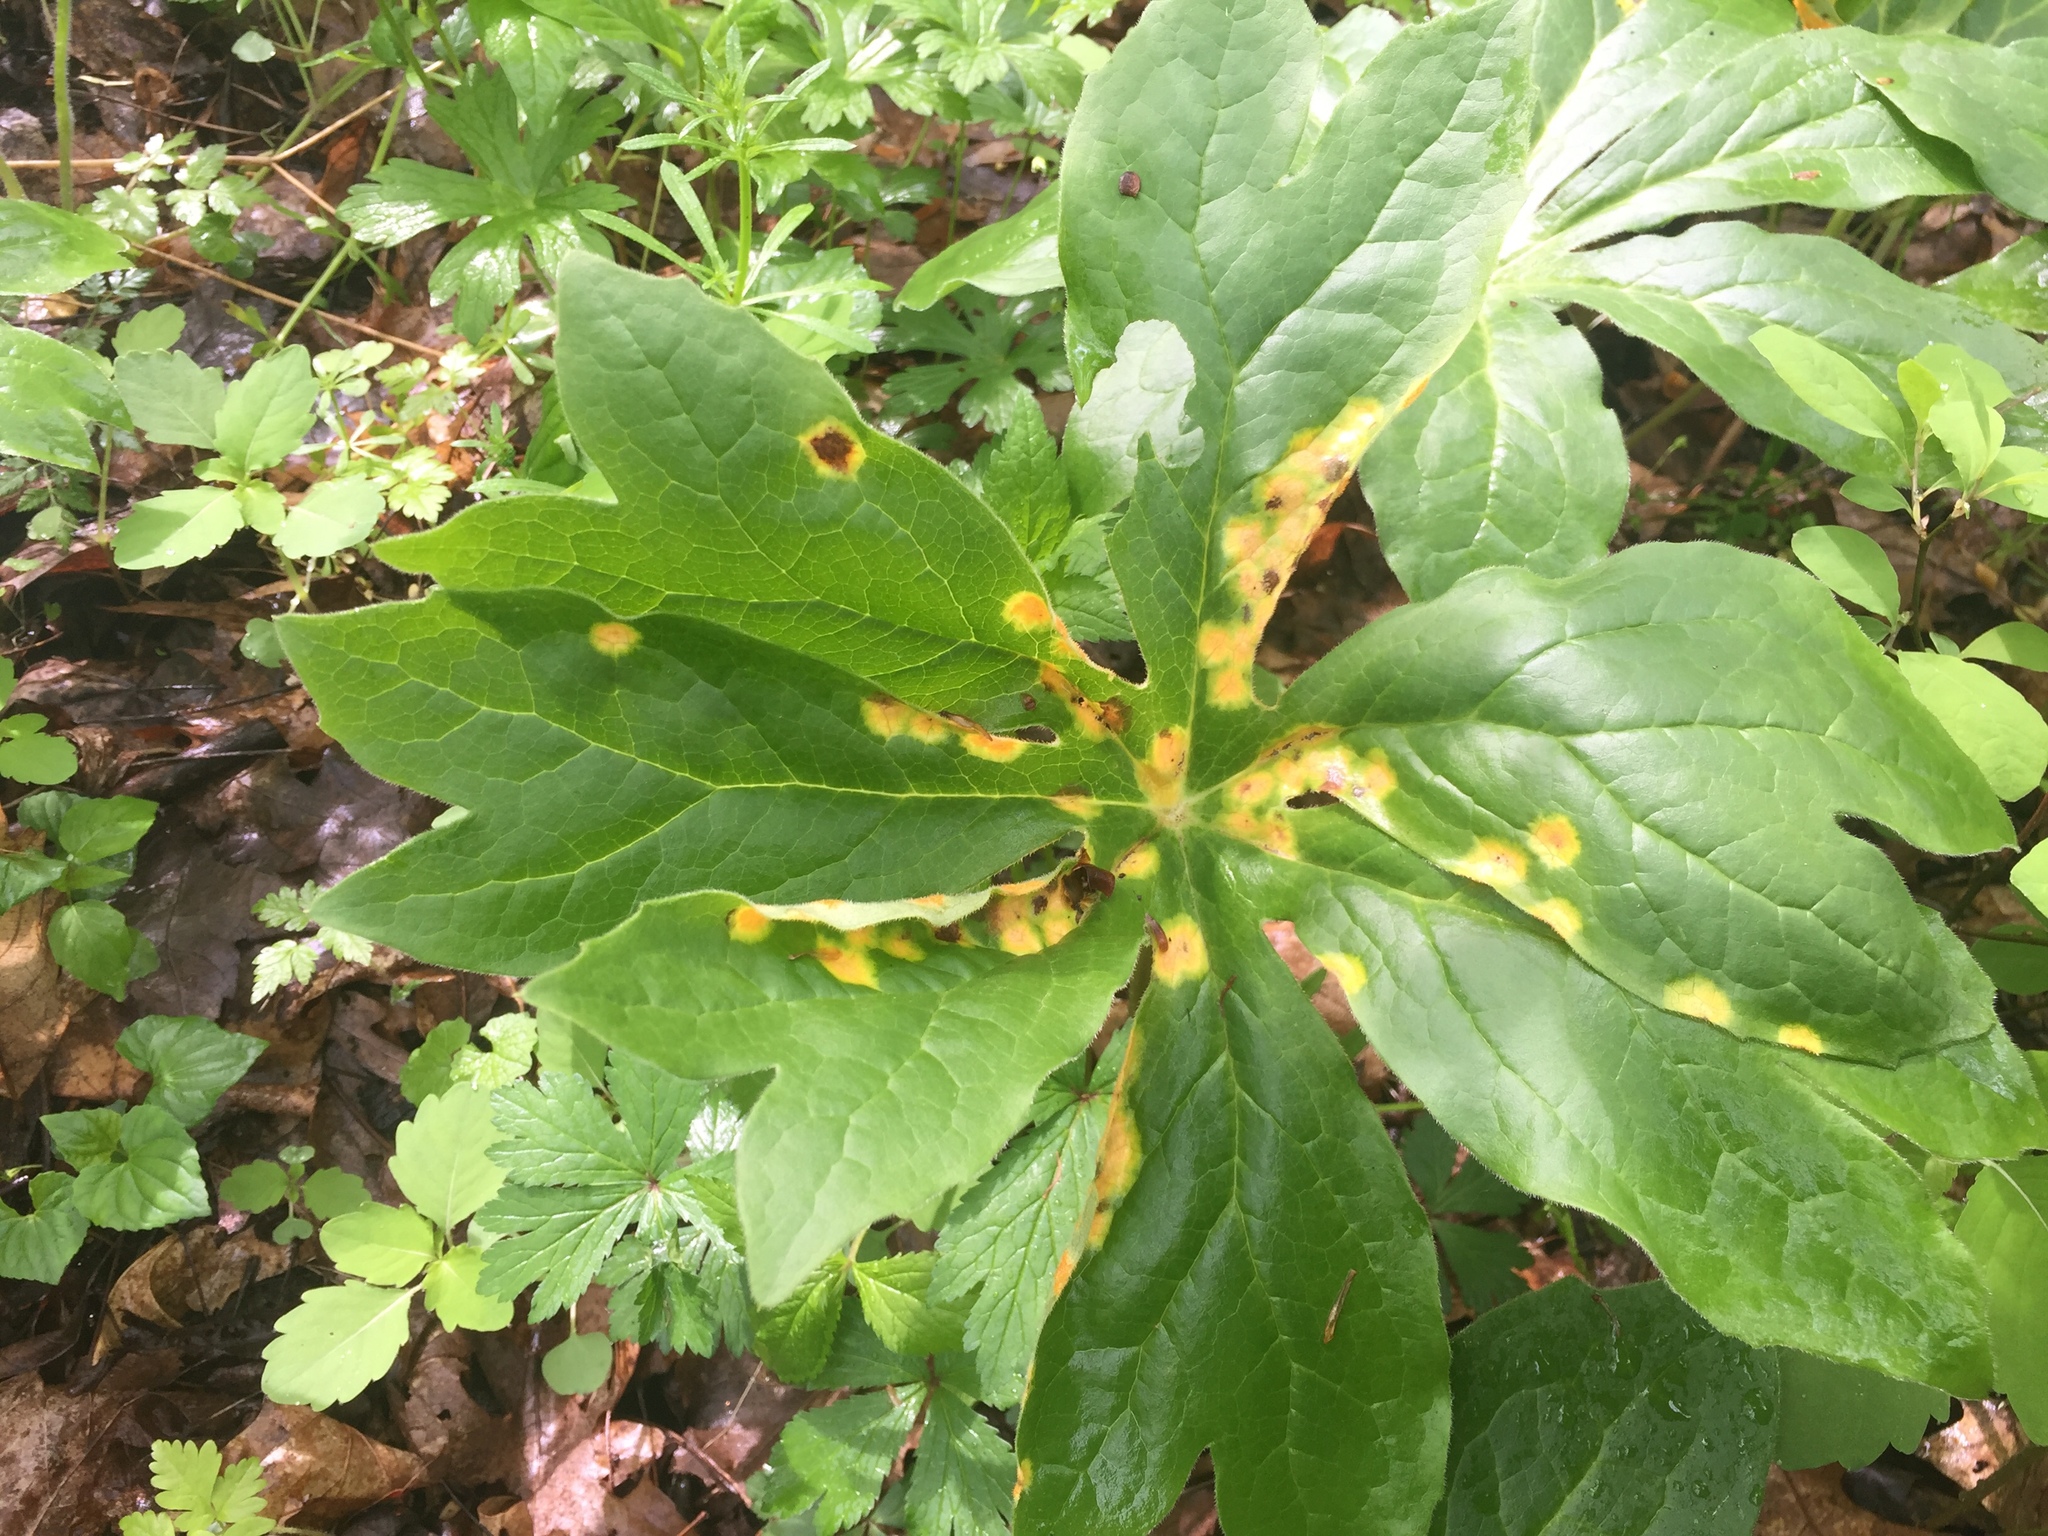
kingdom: Fungi
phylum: Basidiomycota
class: Pucciniomycetes
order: Pucciniales
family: Pucciniaceae
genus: Puccinia
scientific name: Puccinia podophylli
